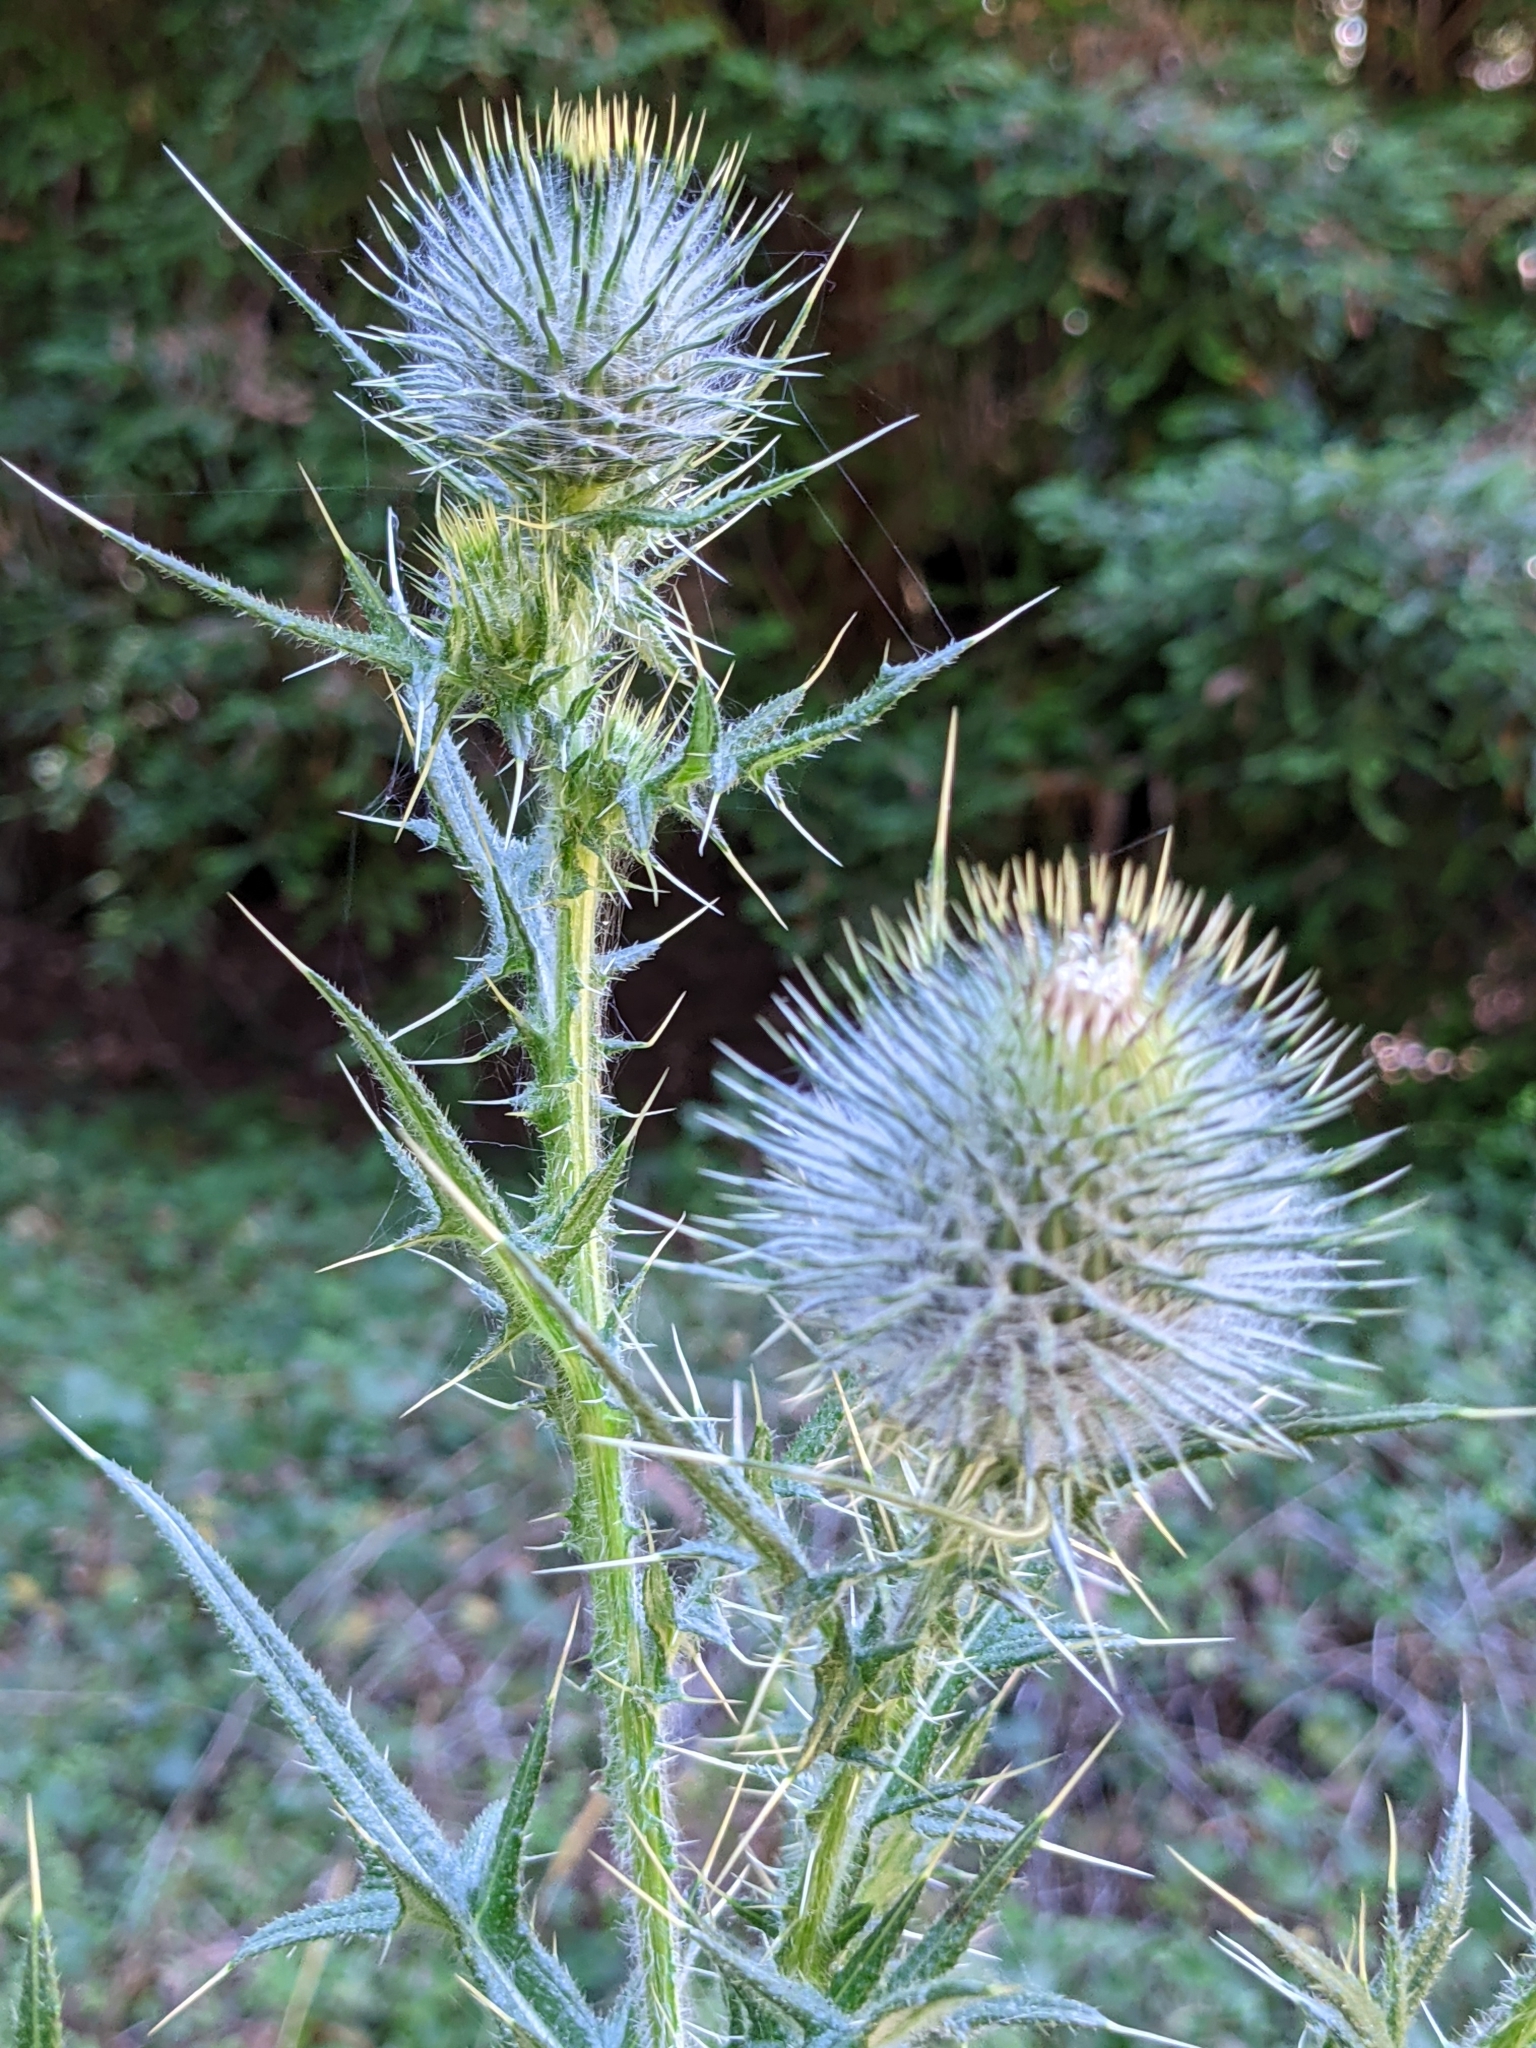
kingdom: Plantae
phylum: Tracheophyta
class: Magnoliopsida
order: Asterales
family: Asteraceae
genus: Cirsium
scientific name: Cirsium vulgare
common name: Bull thistle
